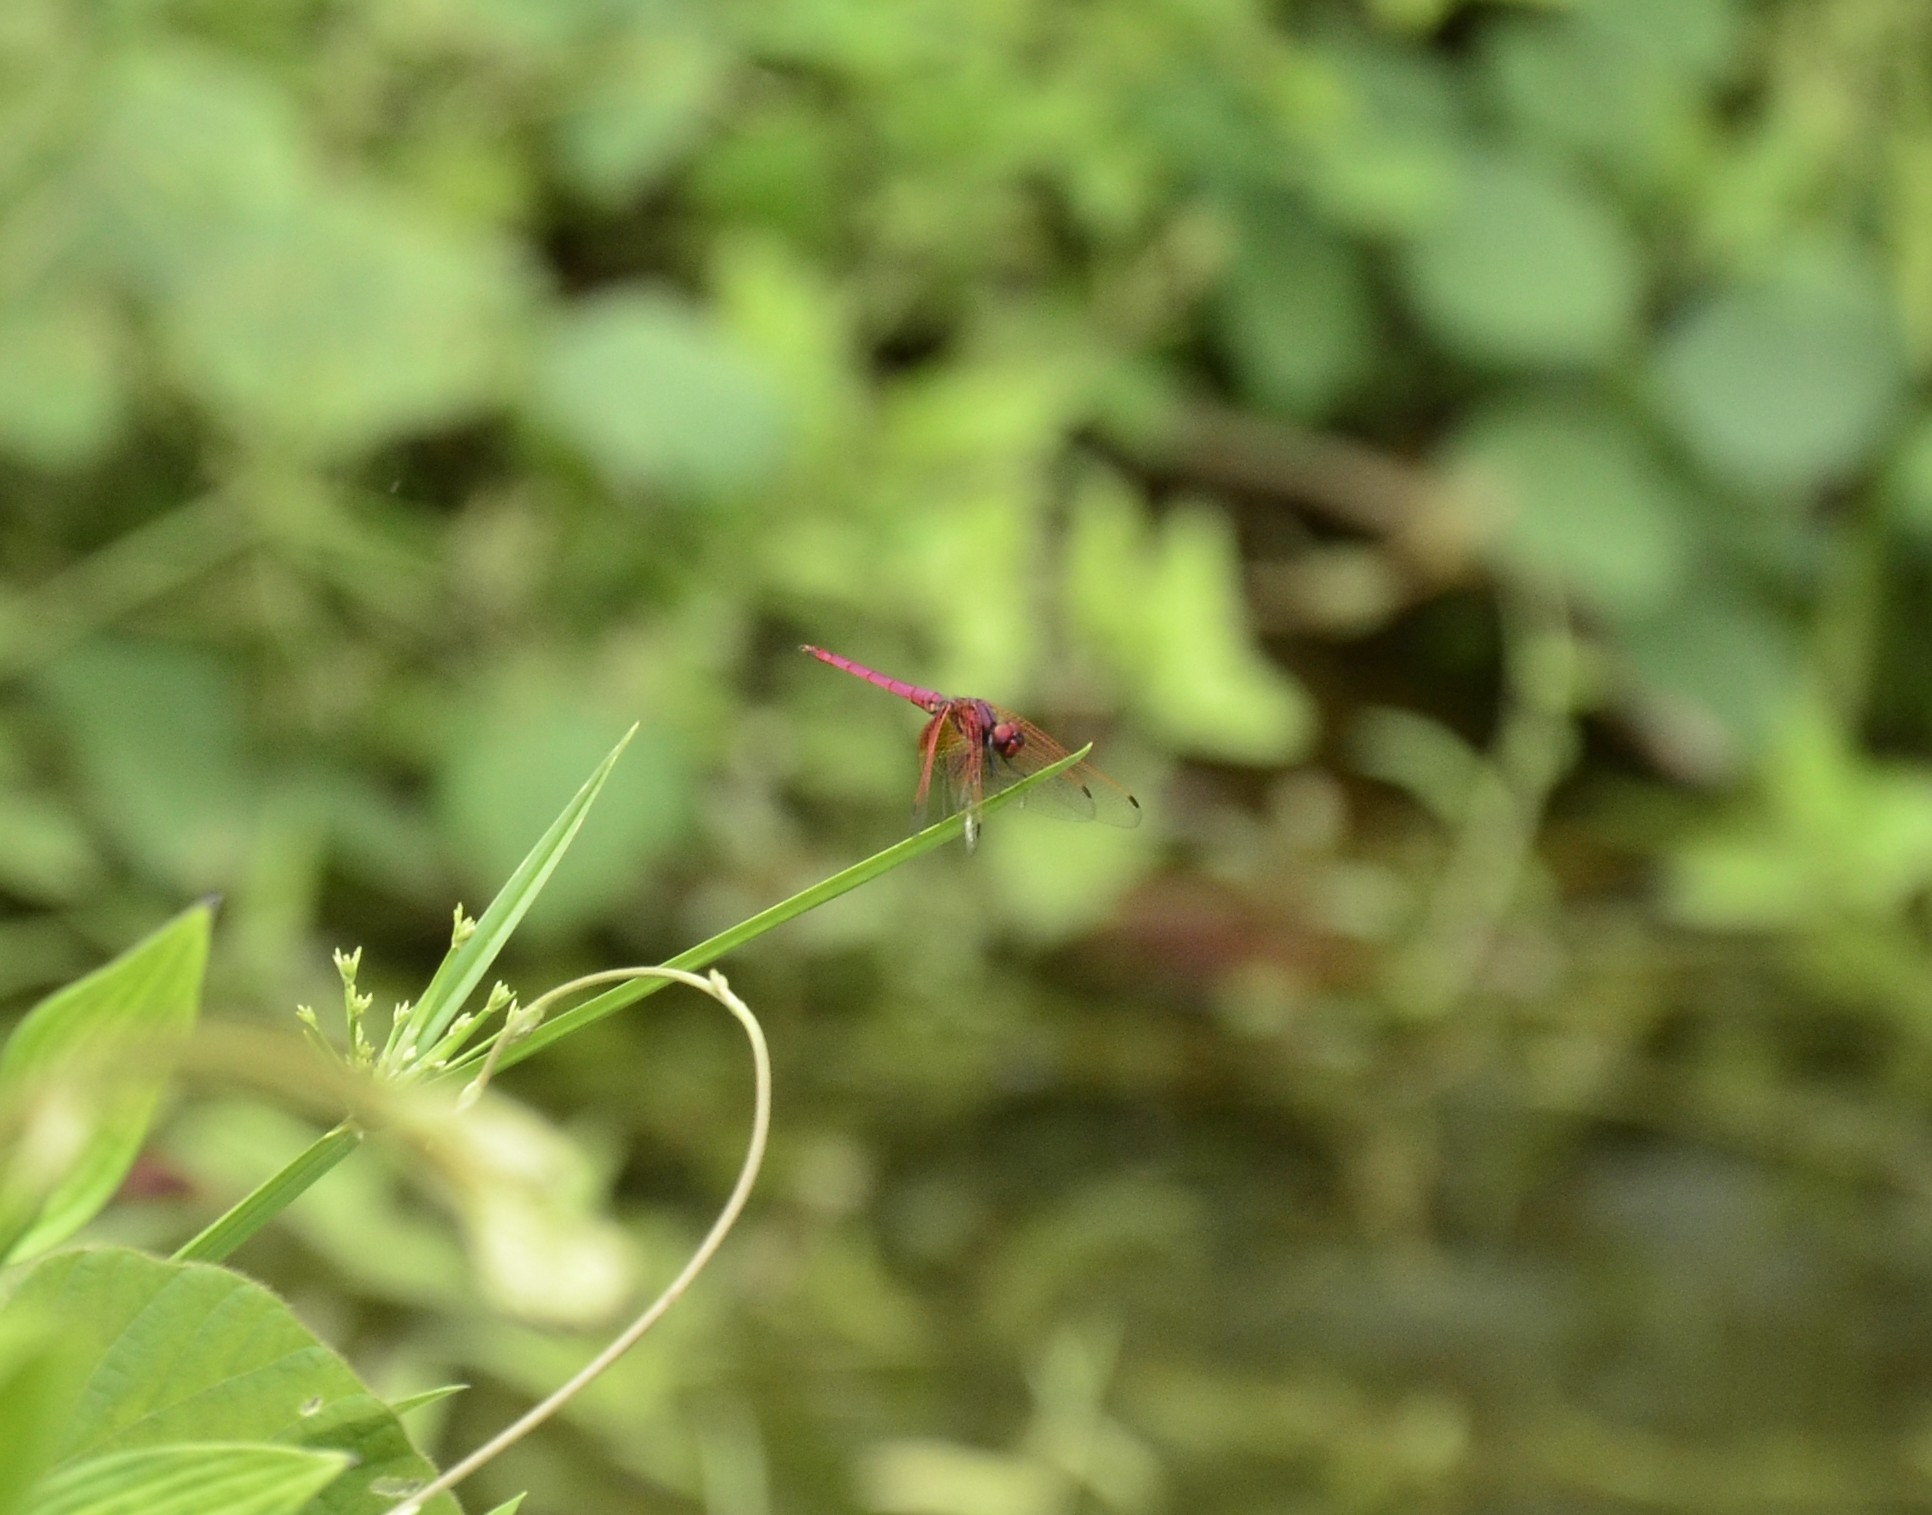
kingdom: Animalia
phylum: Arthropoda
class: Insecta
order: Odonata
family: Libellulidae
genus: Trithemis
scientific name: Trithemis aurora
